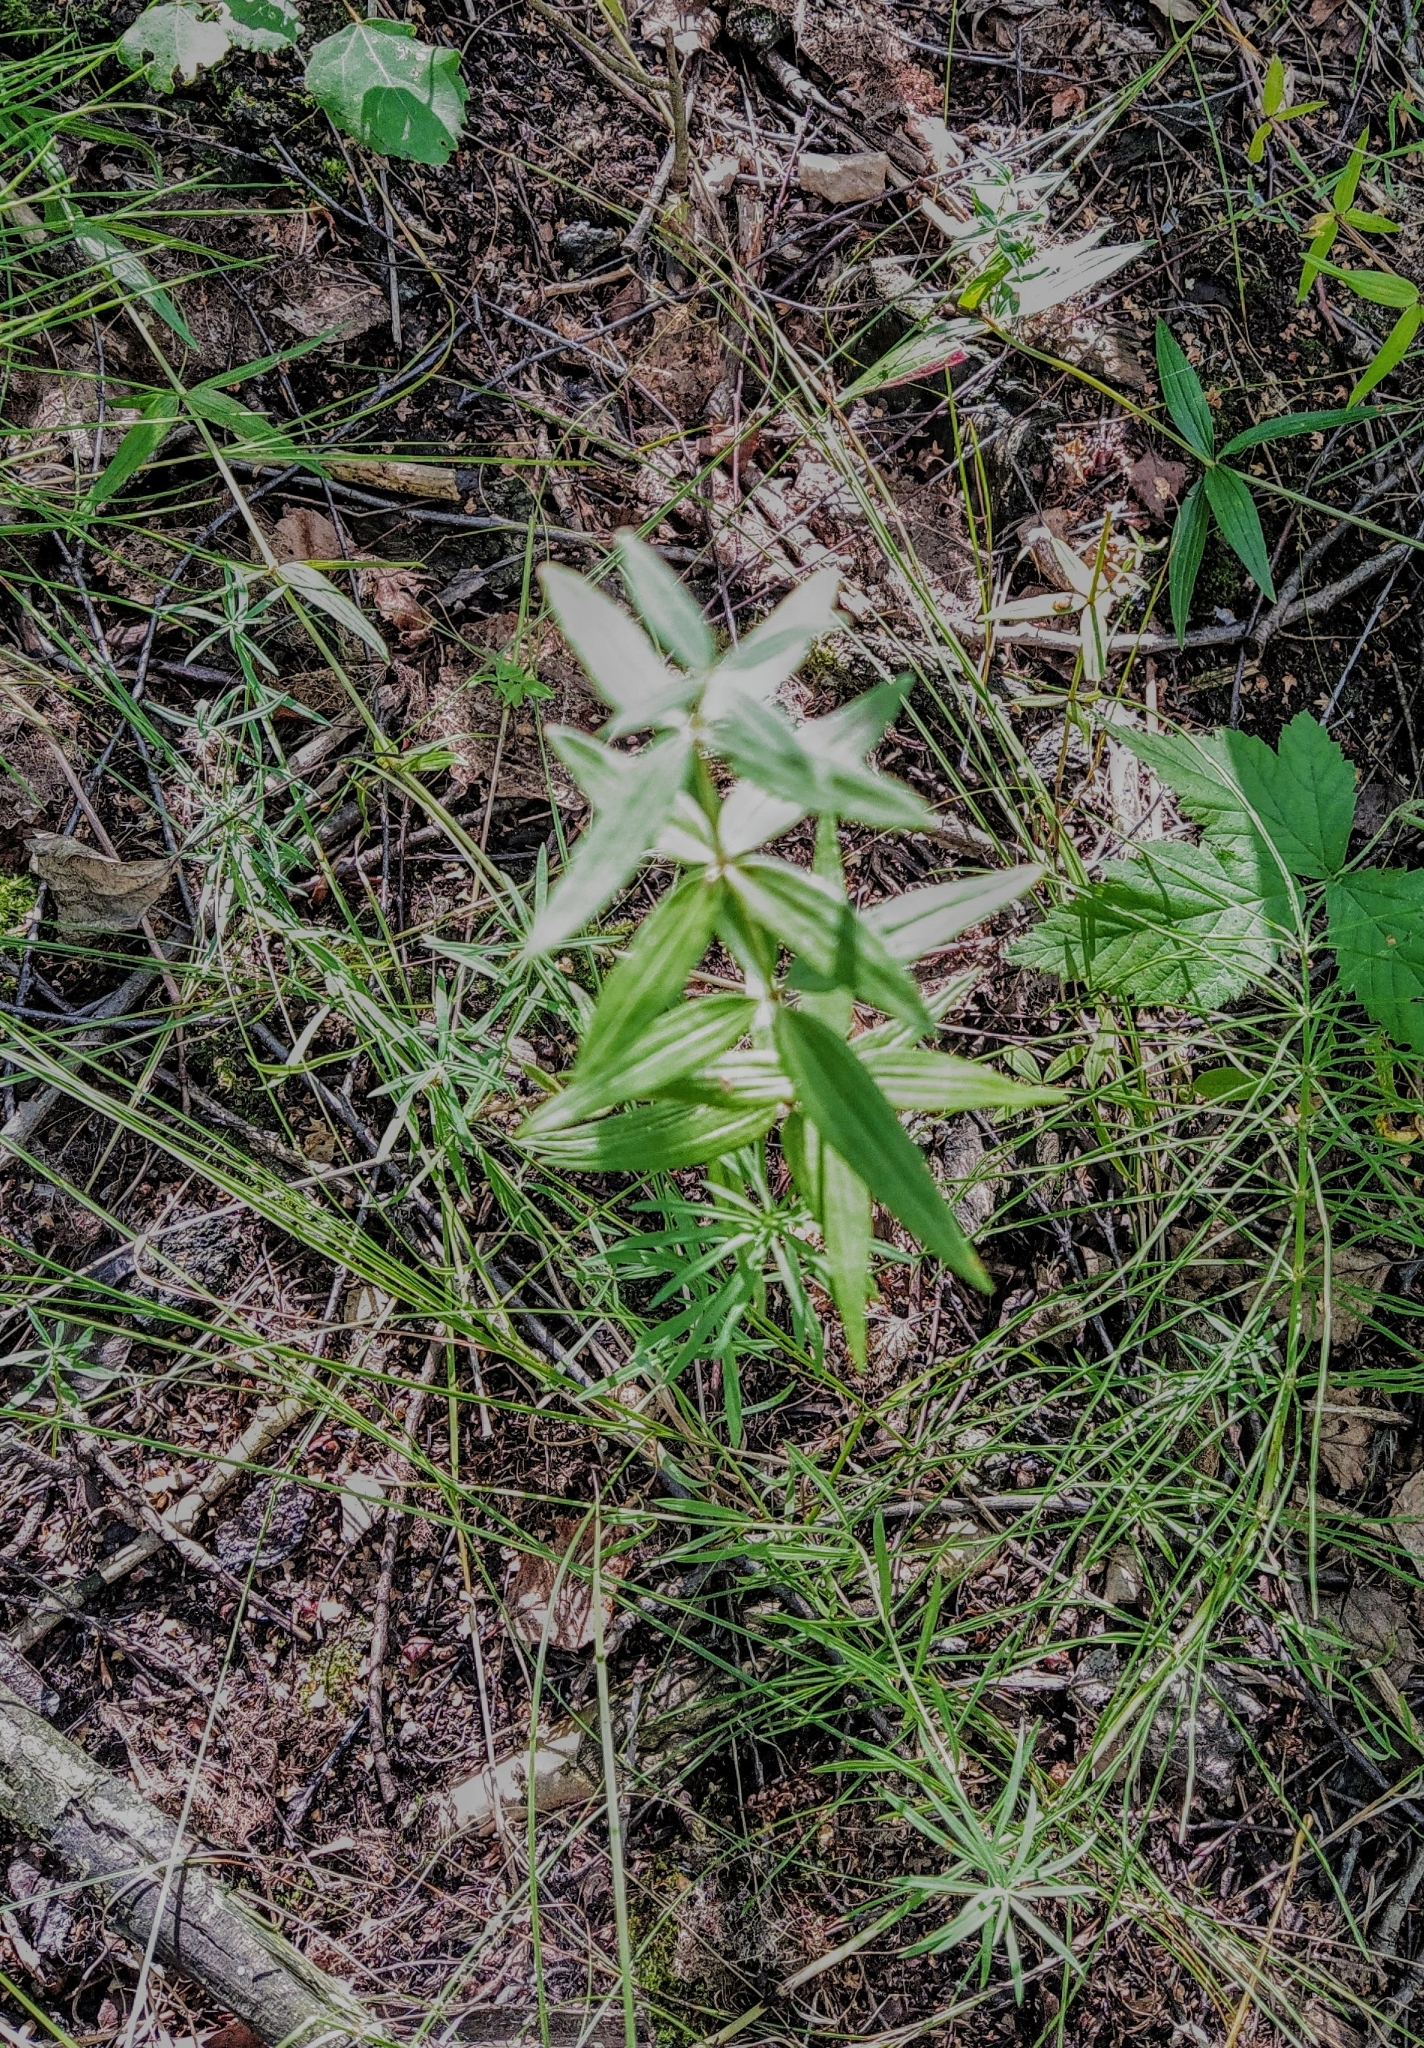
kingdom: Plantae
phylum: Tracheophyta
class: Magnoliopsida
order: Gentianales
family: Rubiaceae
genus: Galium
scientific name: Galium boreale
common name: Northern bedstraw
